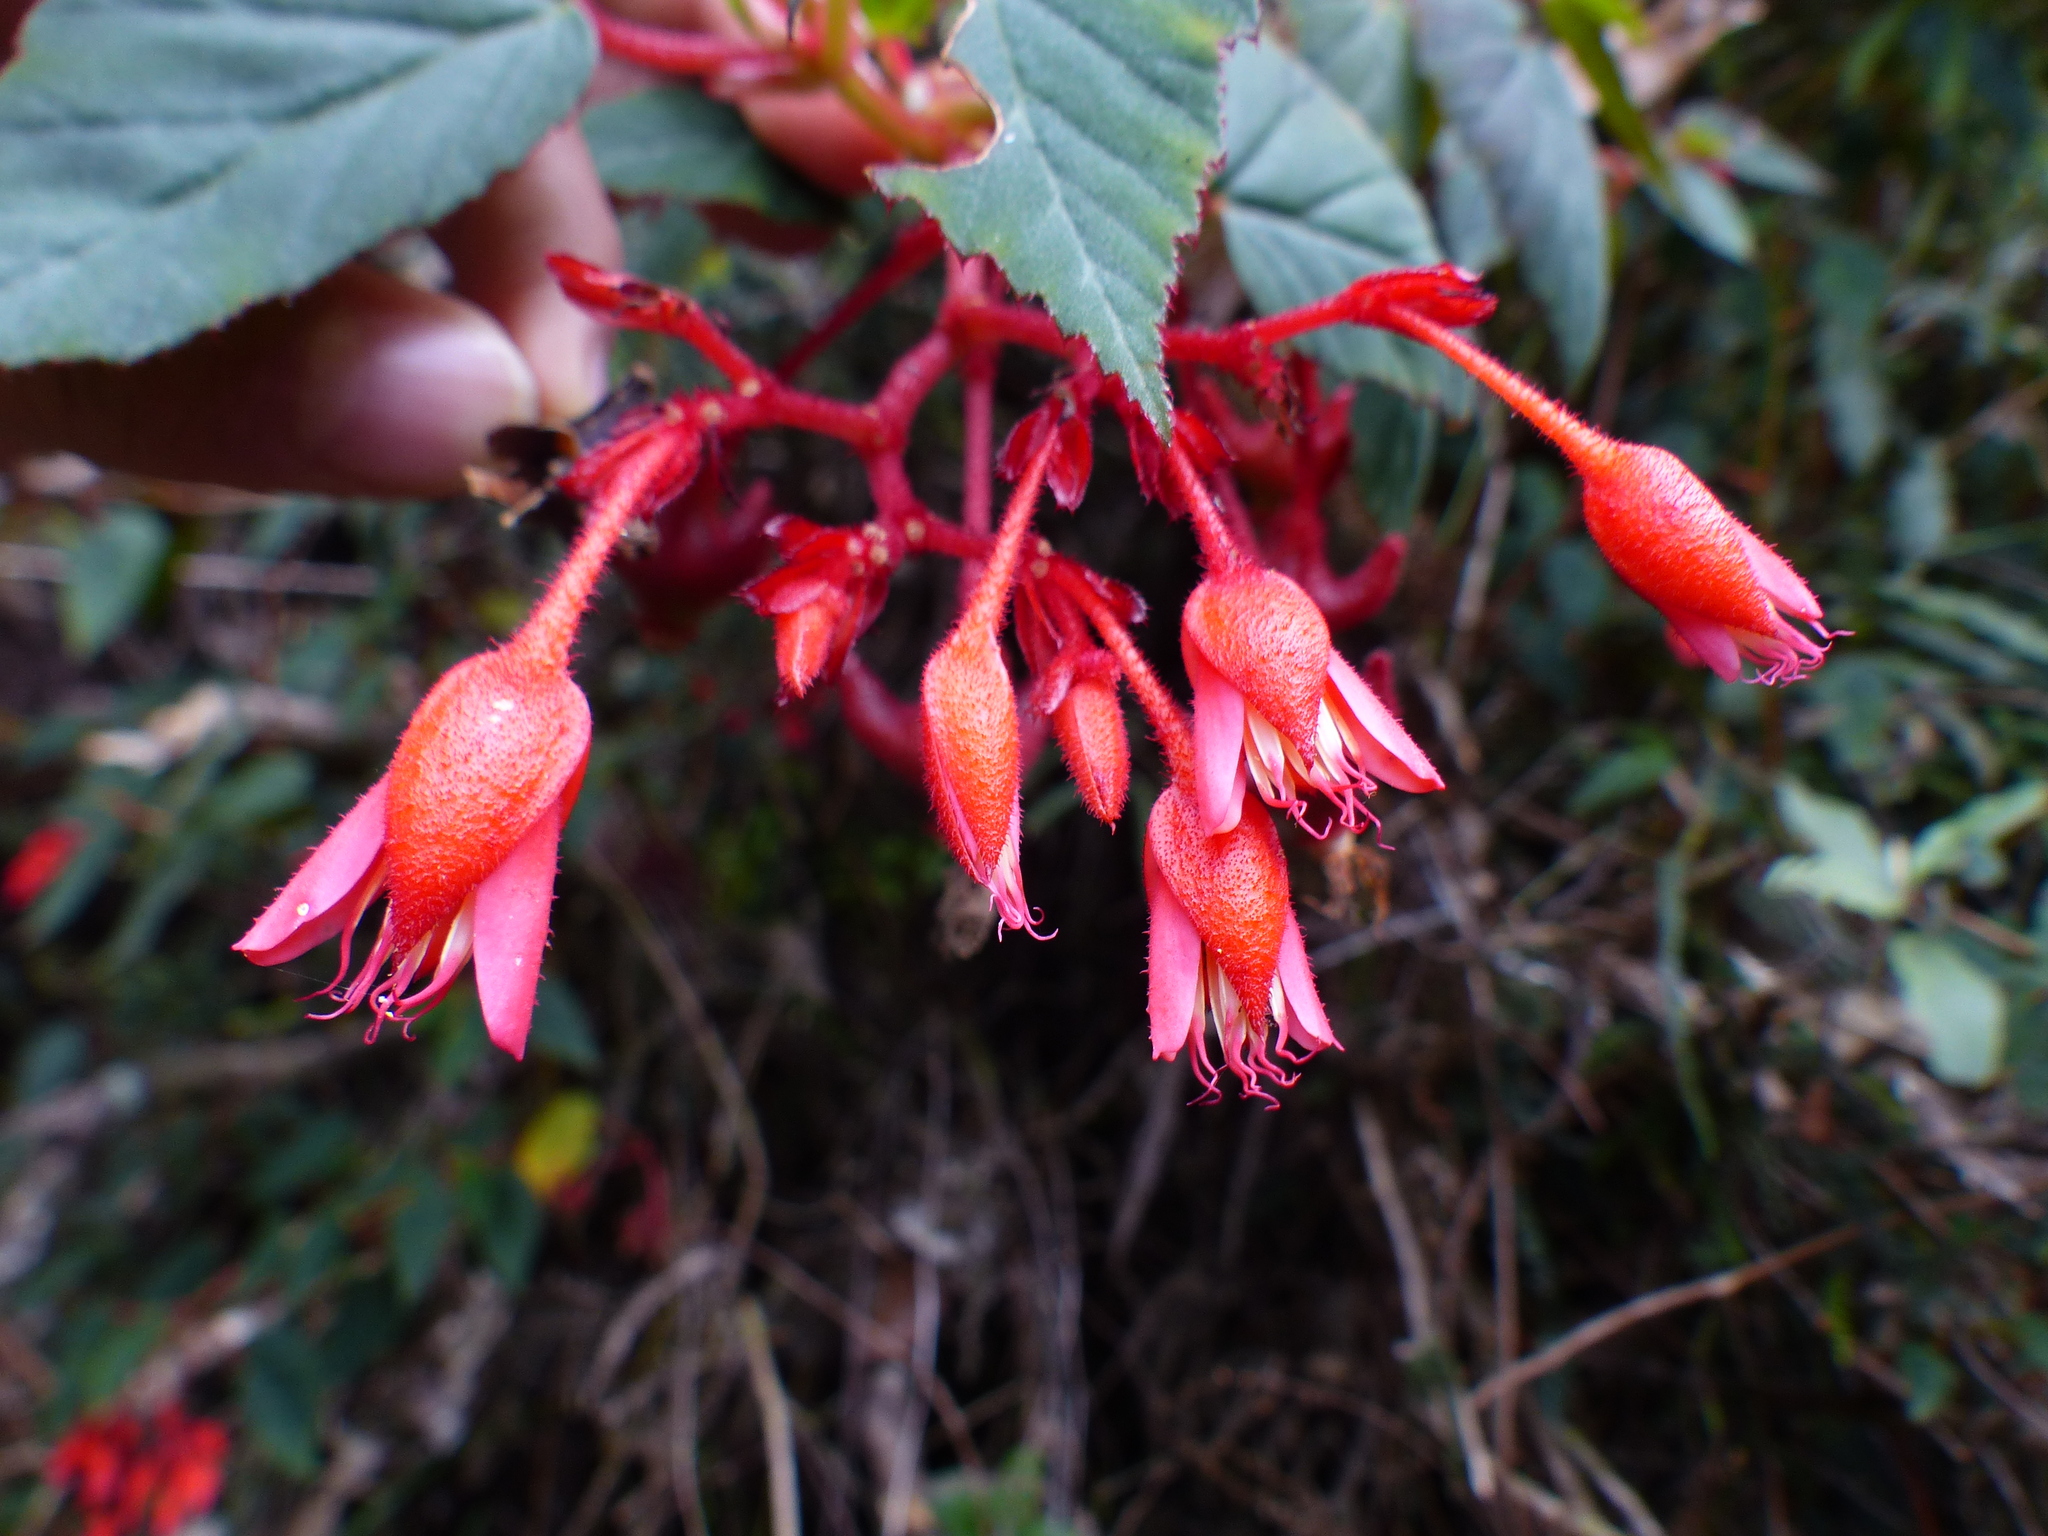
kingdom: Plantae
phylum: Tracheophyta
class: Magnoliopsida
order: Cucurbitales
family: Begoniaceae
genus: Begonia
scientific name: Begonia ferruginea
